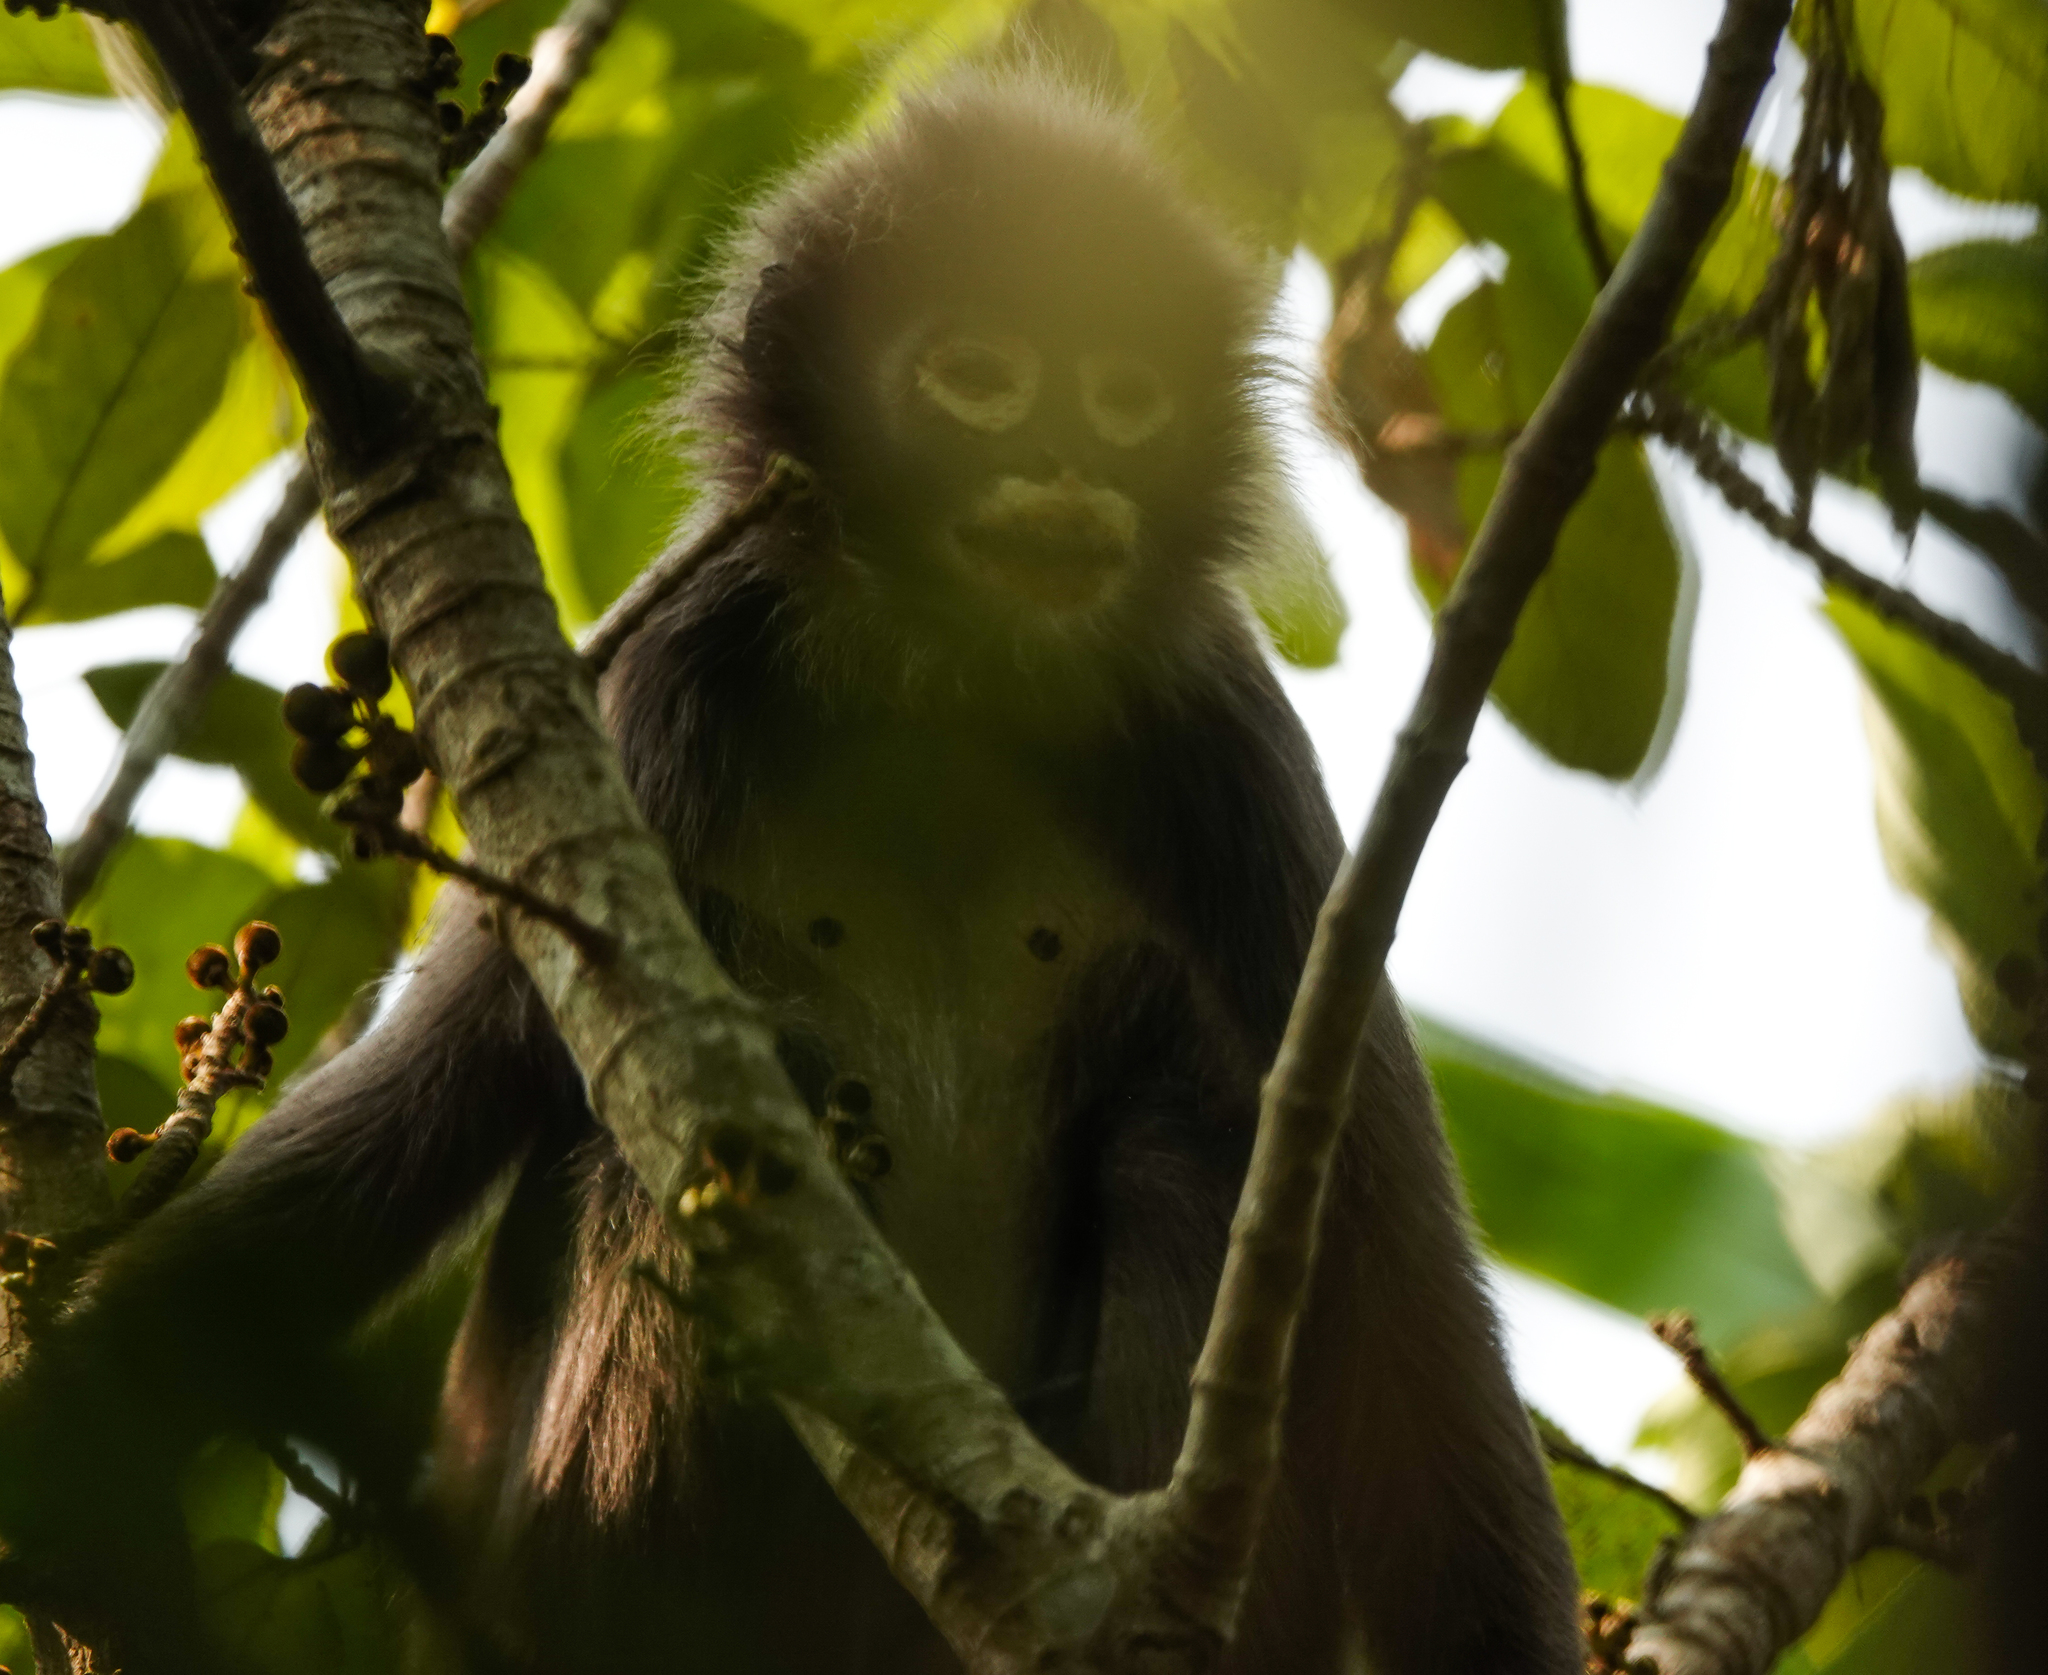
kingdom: Animalia
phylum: Chordata
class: Mammalia
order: Primates
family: Cercopithecidae
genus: Trachypithecus
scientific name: Trachypithecus phayrei
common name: Phayre's leaf monkey
